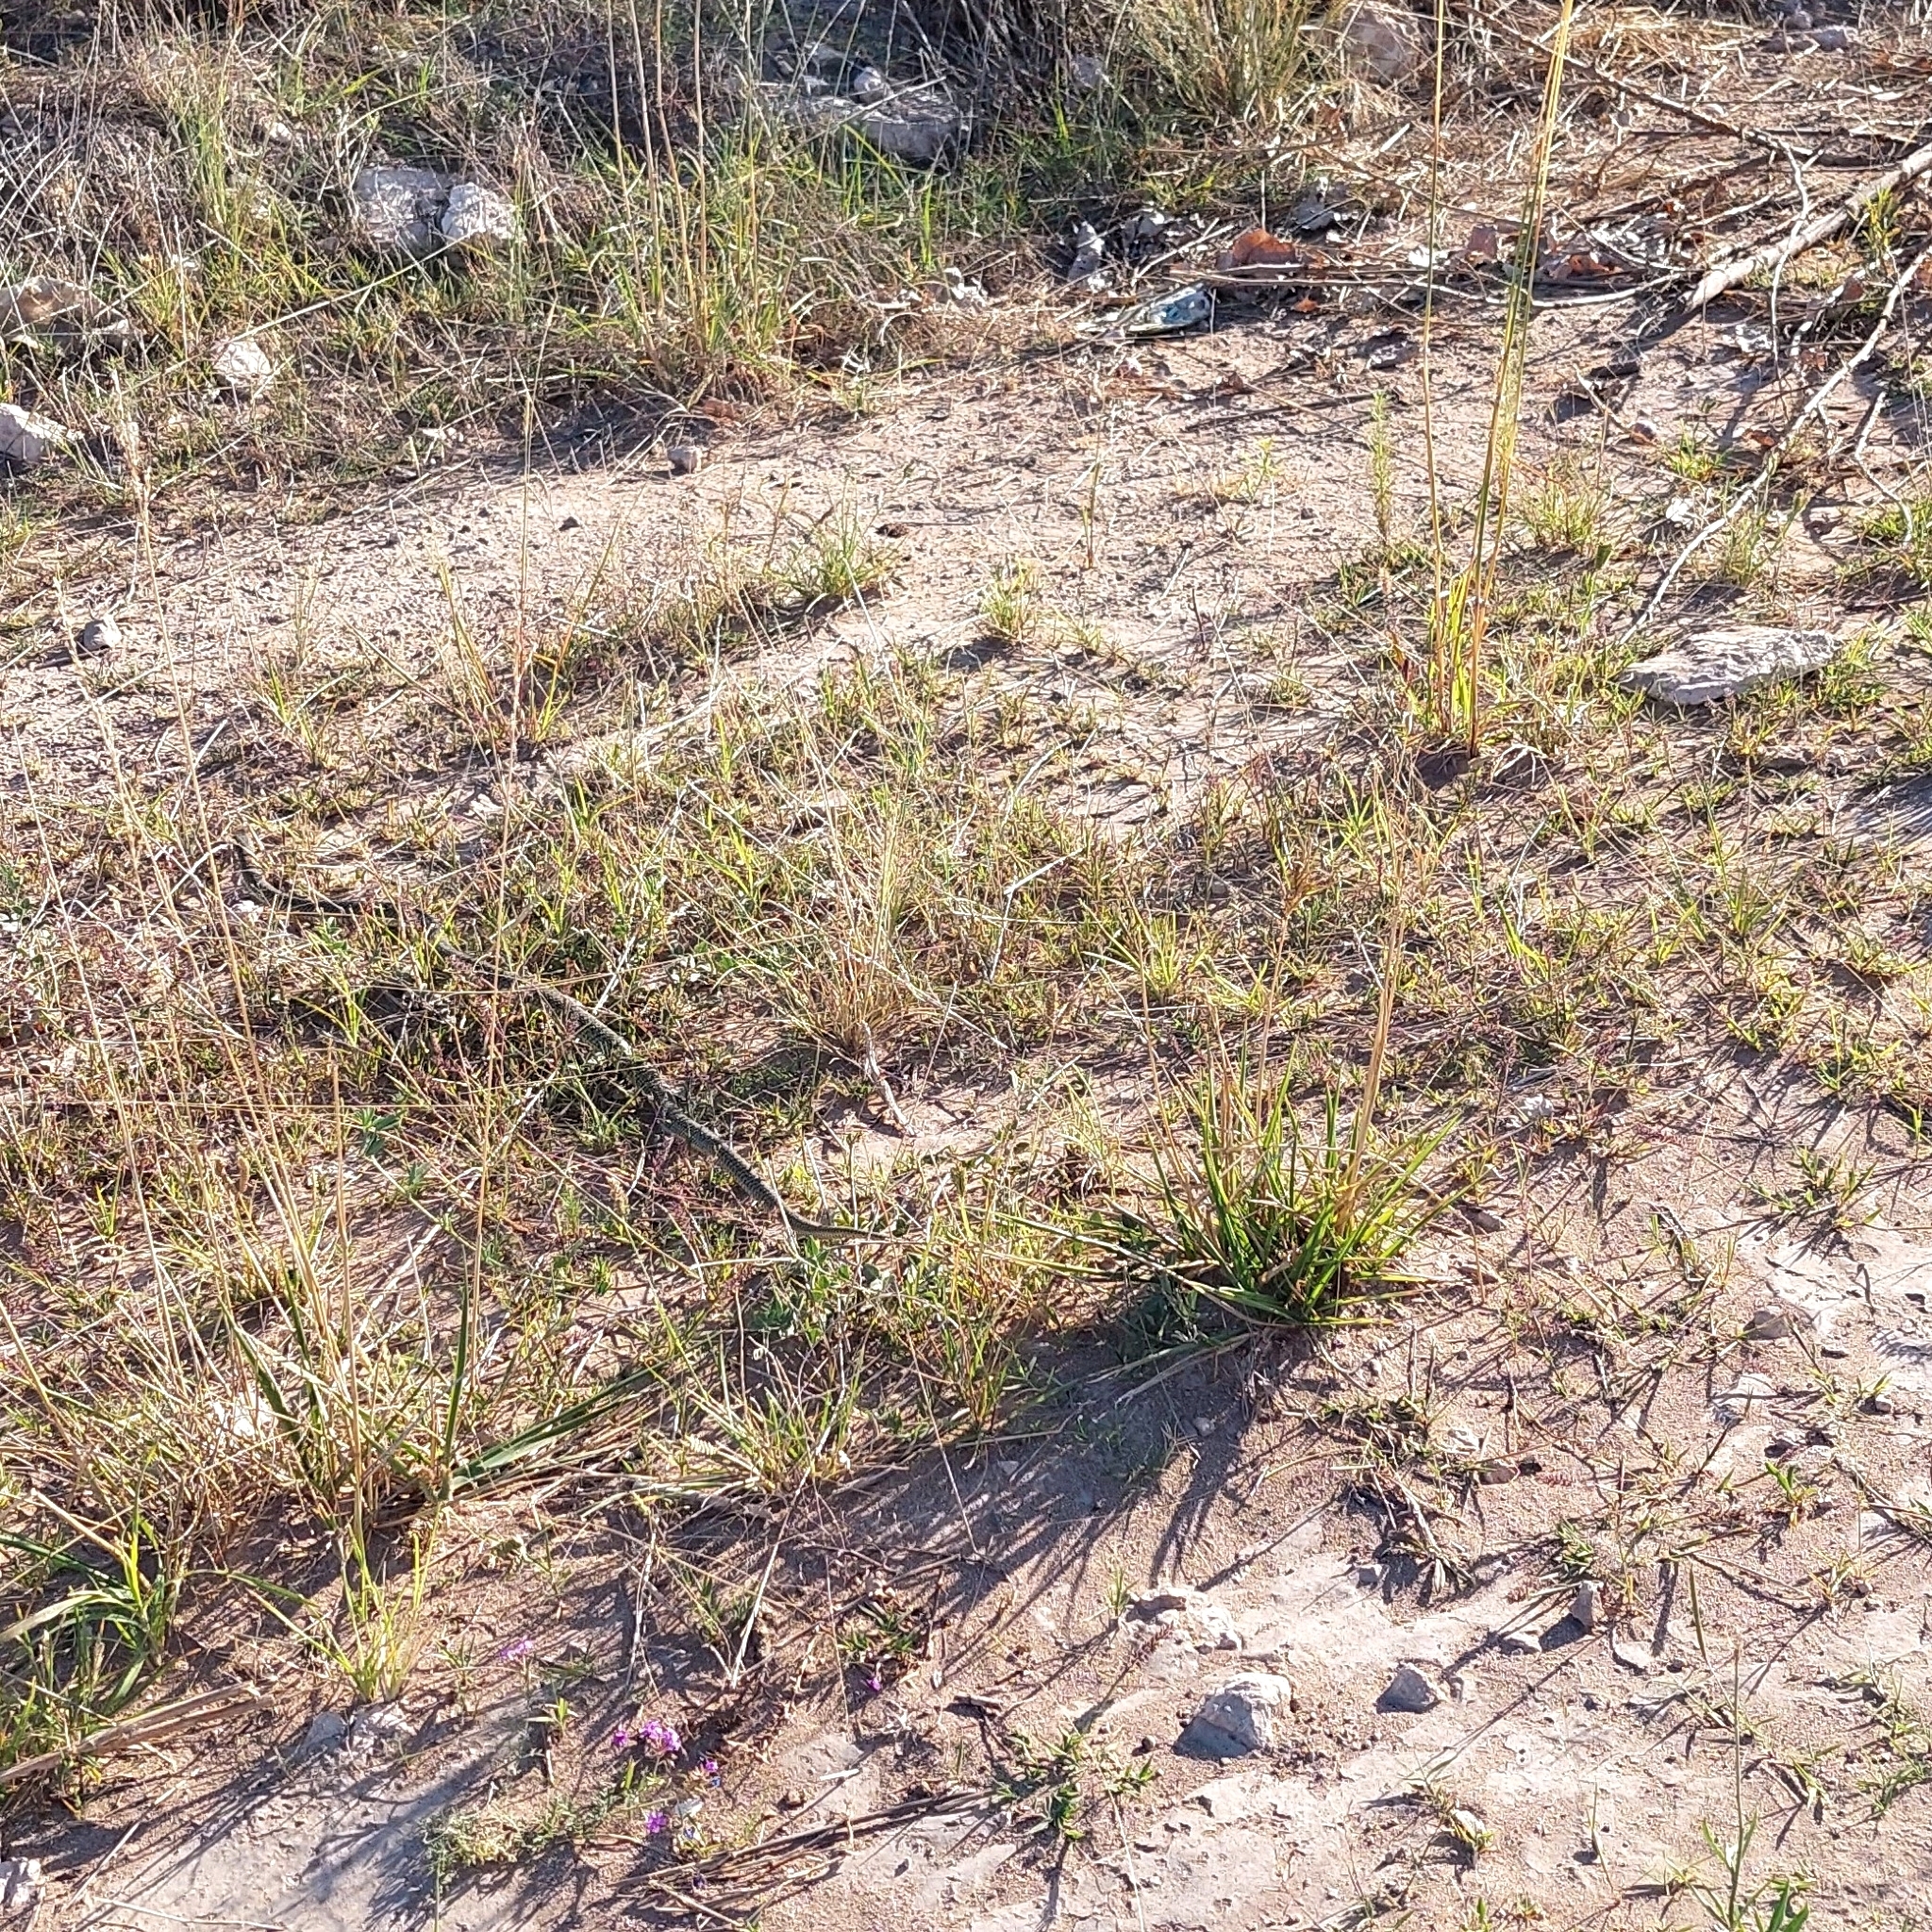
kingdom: Animalia
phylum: Chordata
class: Squamata
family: Colubridae
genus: Philodryas
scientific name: Philodryas patagoniensis
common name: Patagonia green racer
